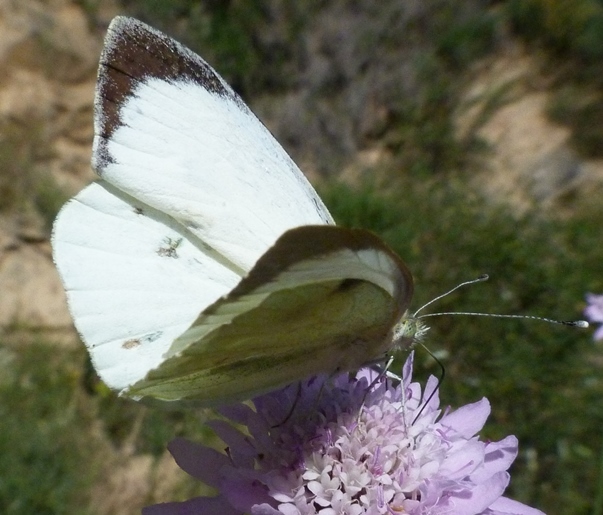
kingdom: Animalia
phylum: Arthropoda
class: Insecta
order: Lepidoptera
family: Pieridae
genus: Pieris
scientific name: Pieris brassicae
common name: Large white
